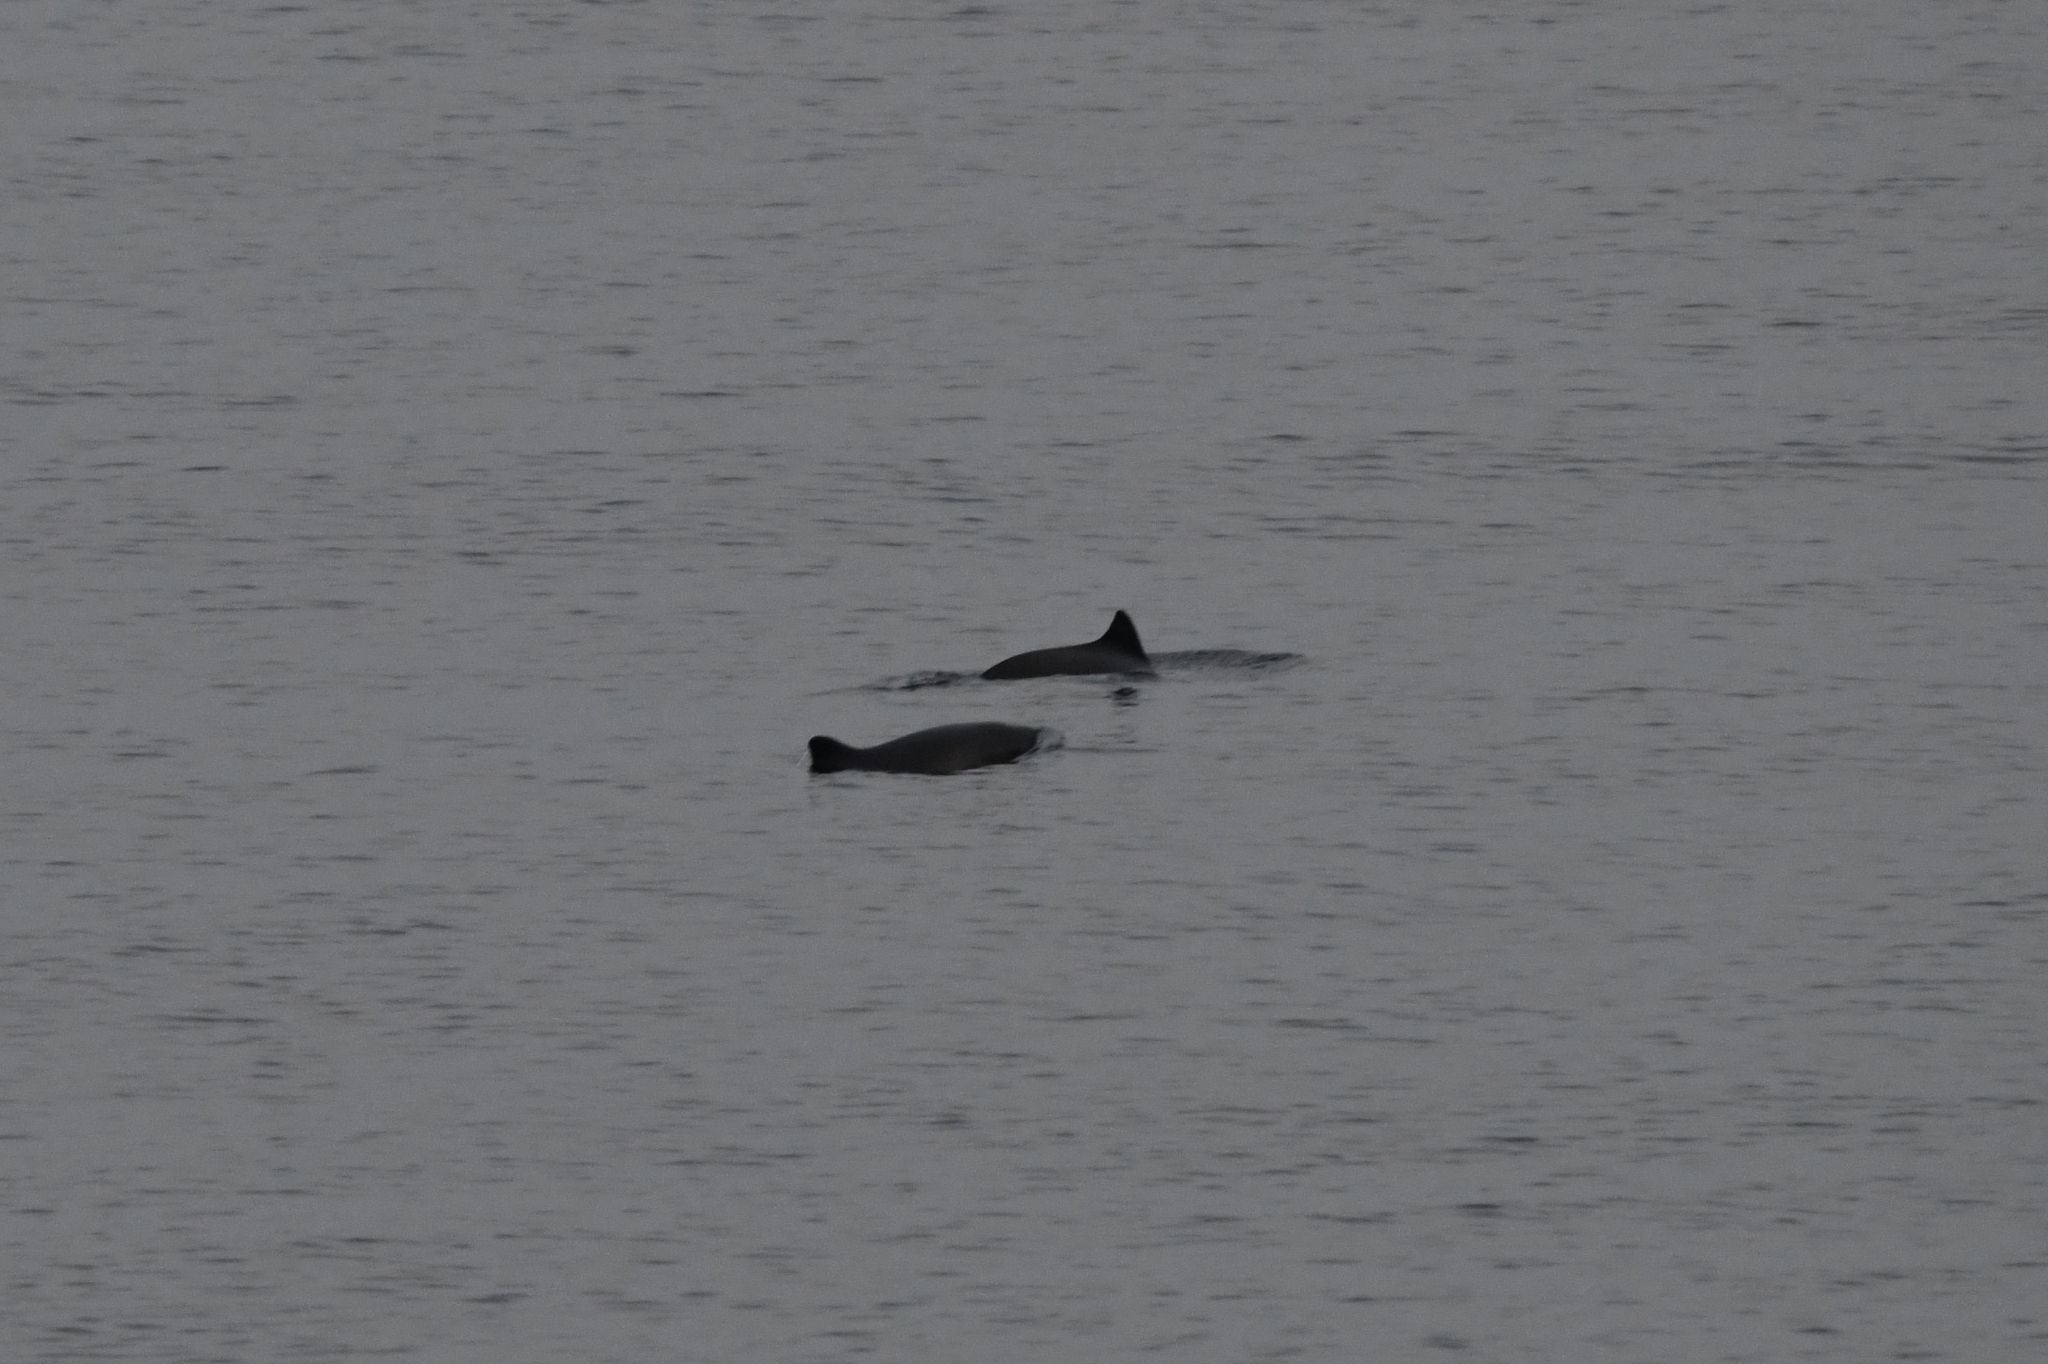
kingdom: Animalia
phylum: Chordata
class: Mammalia
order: Cetacea
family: Phocoenidae
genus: Phocoena
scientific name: Phocoena phocoena
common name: Harbor porpoise
